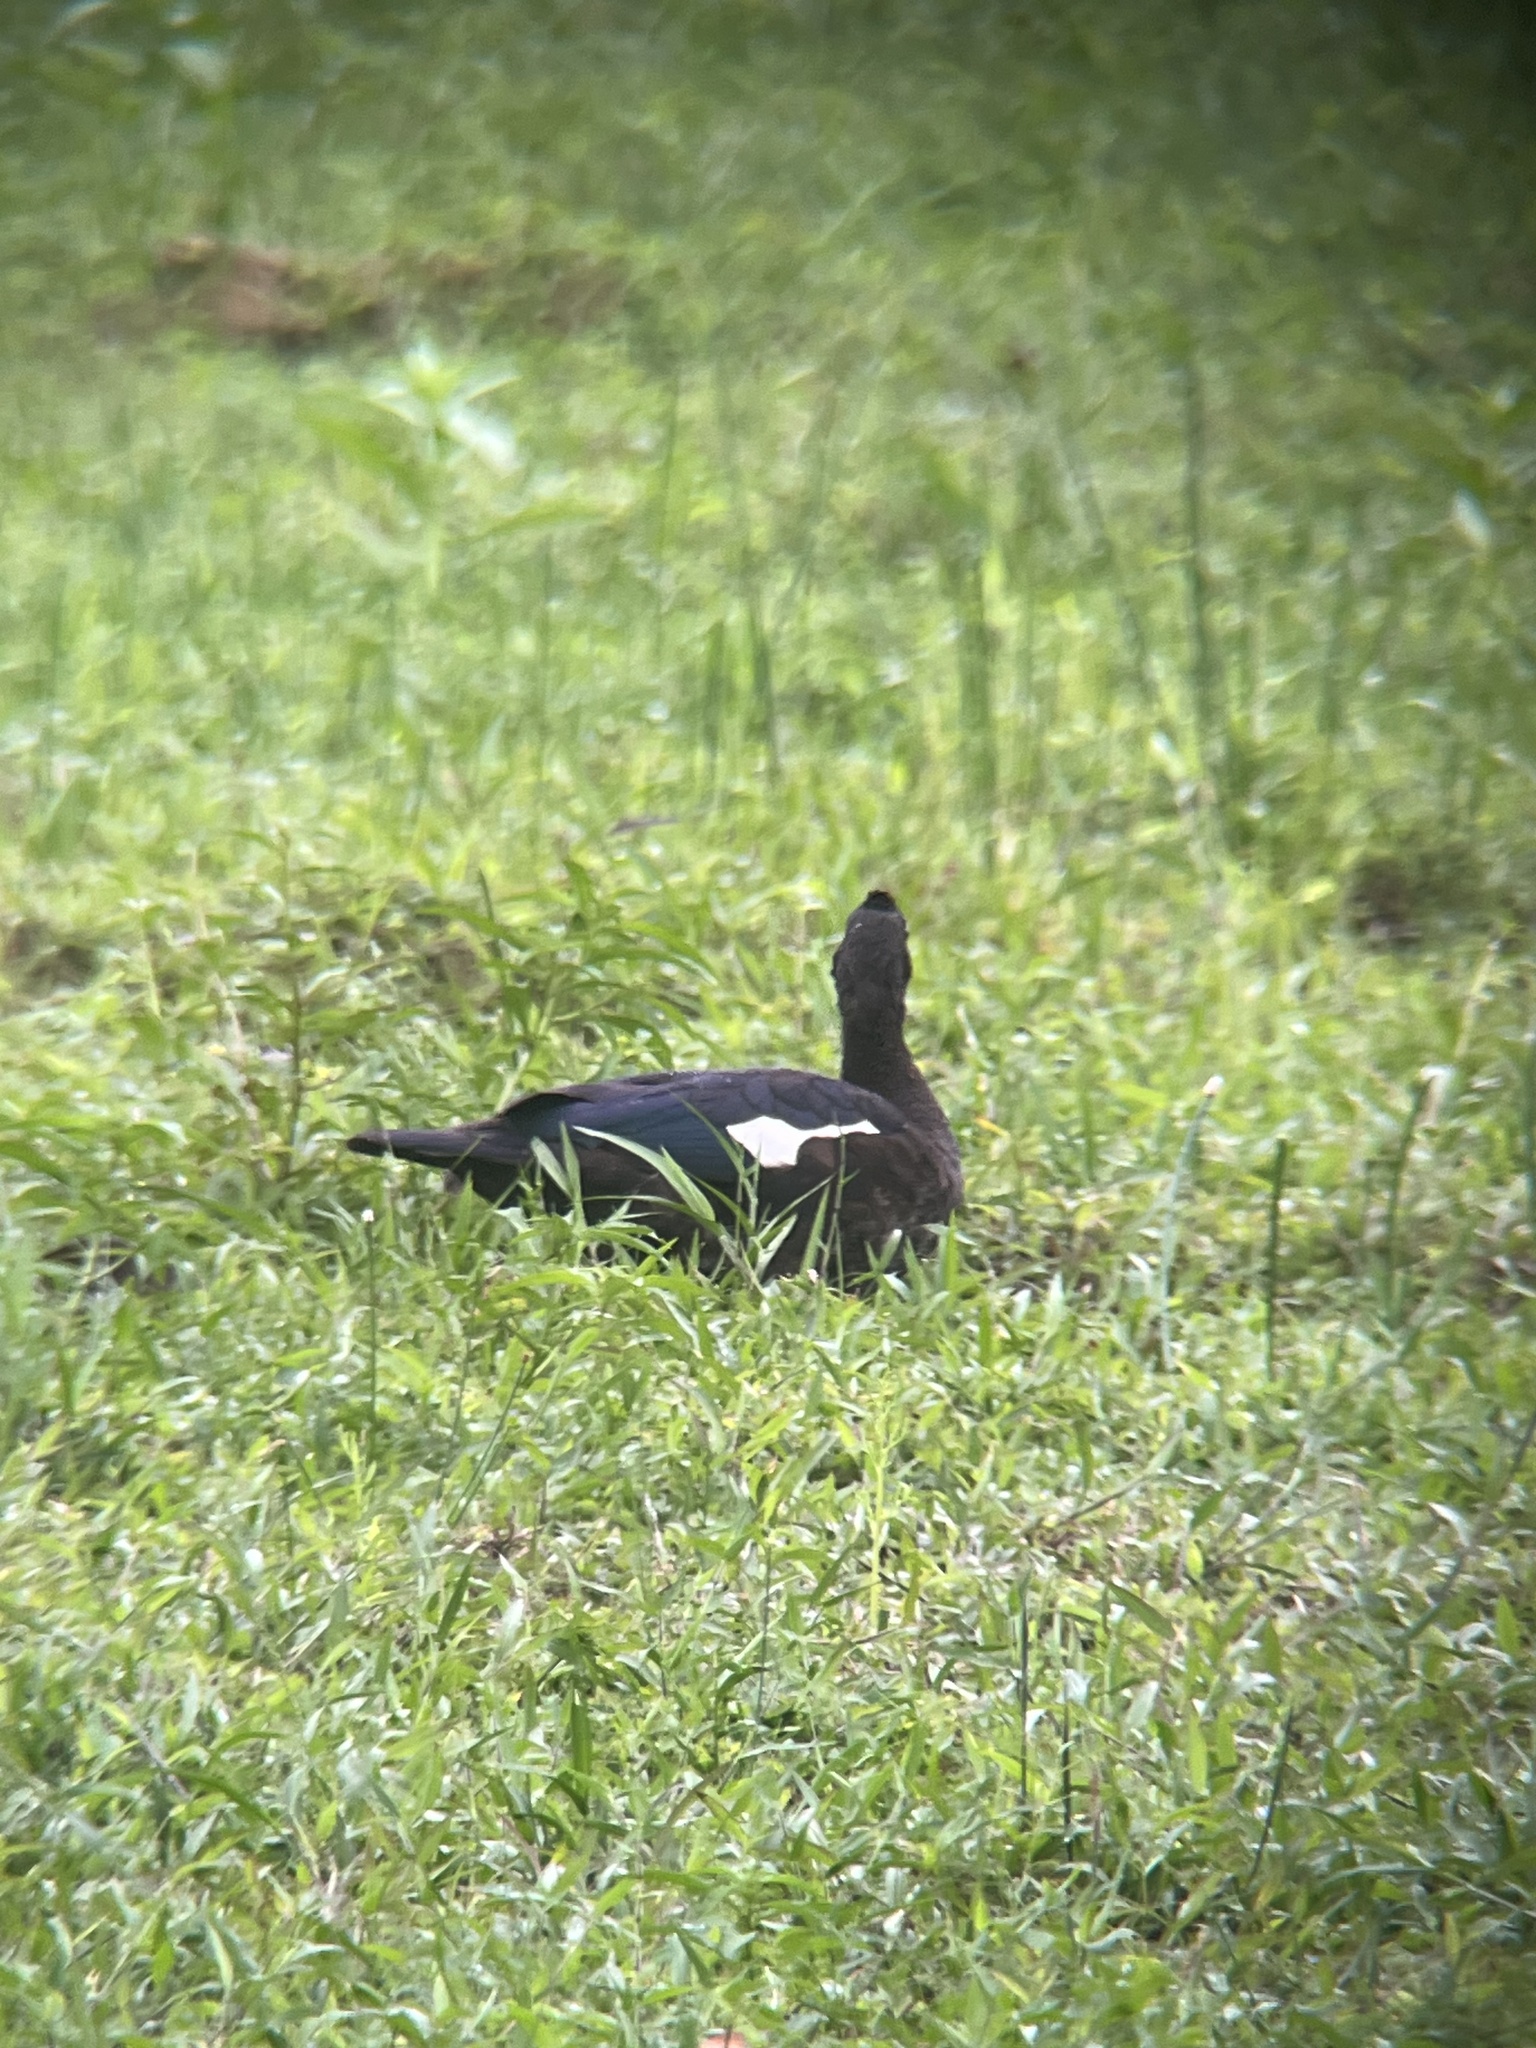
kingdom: Animalia
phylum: Chordata
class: Aves
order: Anseriformes
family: Anatidae
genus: Cairina
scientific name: Cairina moschata
